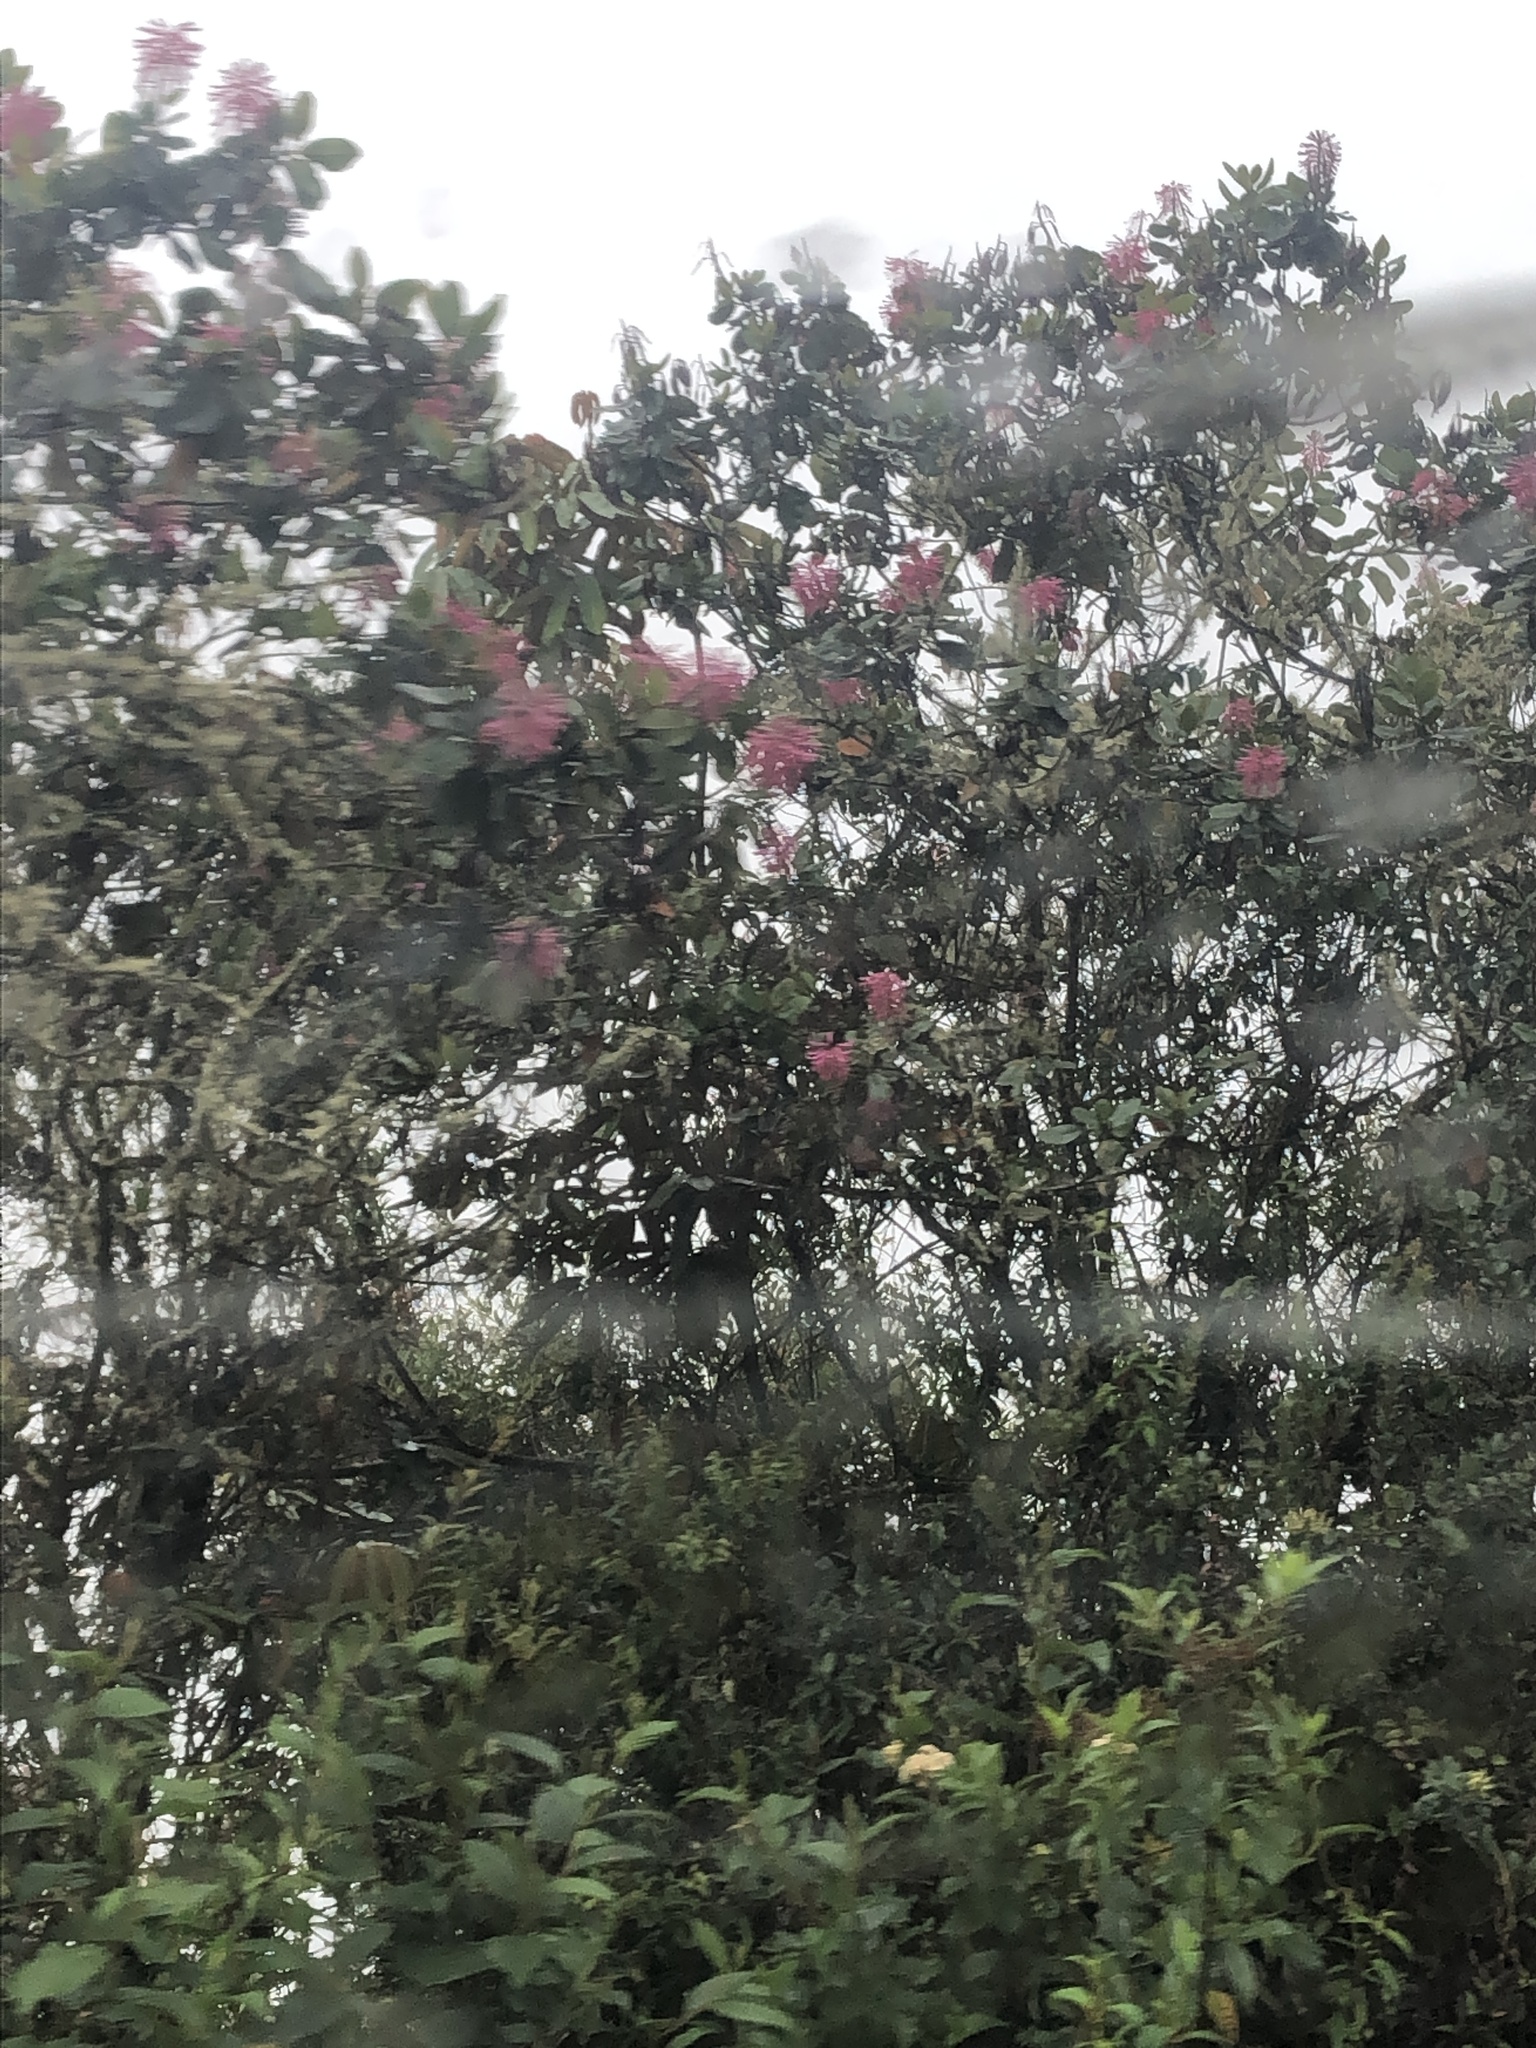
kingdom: Plantae
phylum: Tracheophyta
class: Magnoliopsida
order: Proteales
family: Proteaceae
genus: Oreocallis
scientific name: Oreocallis grandiflora
